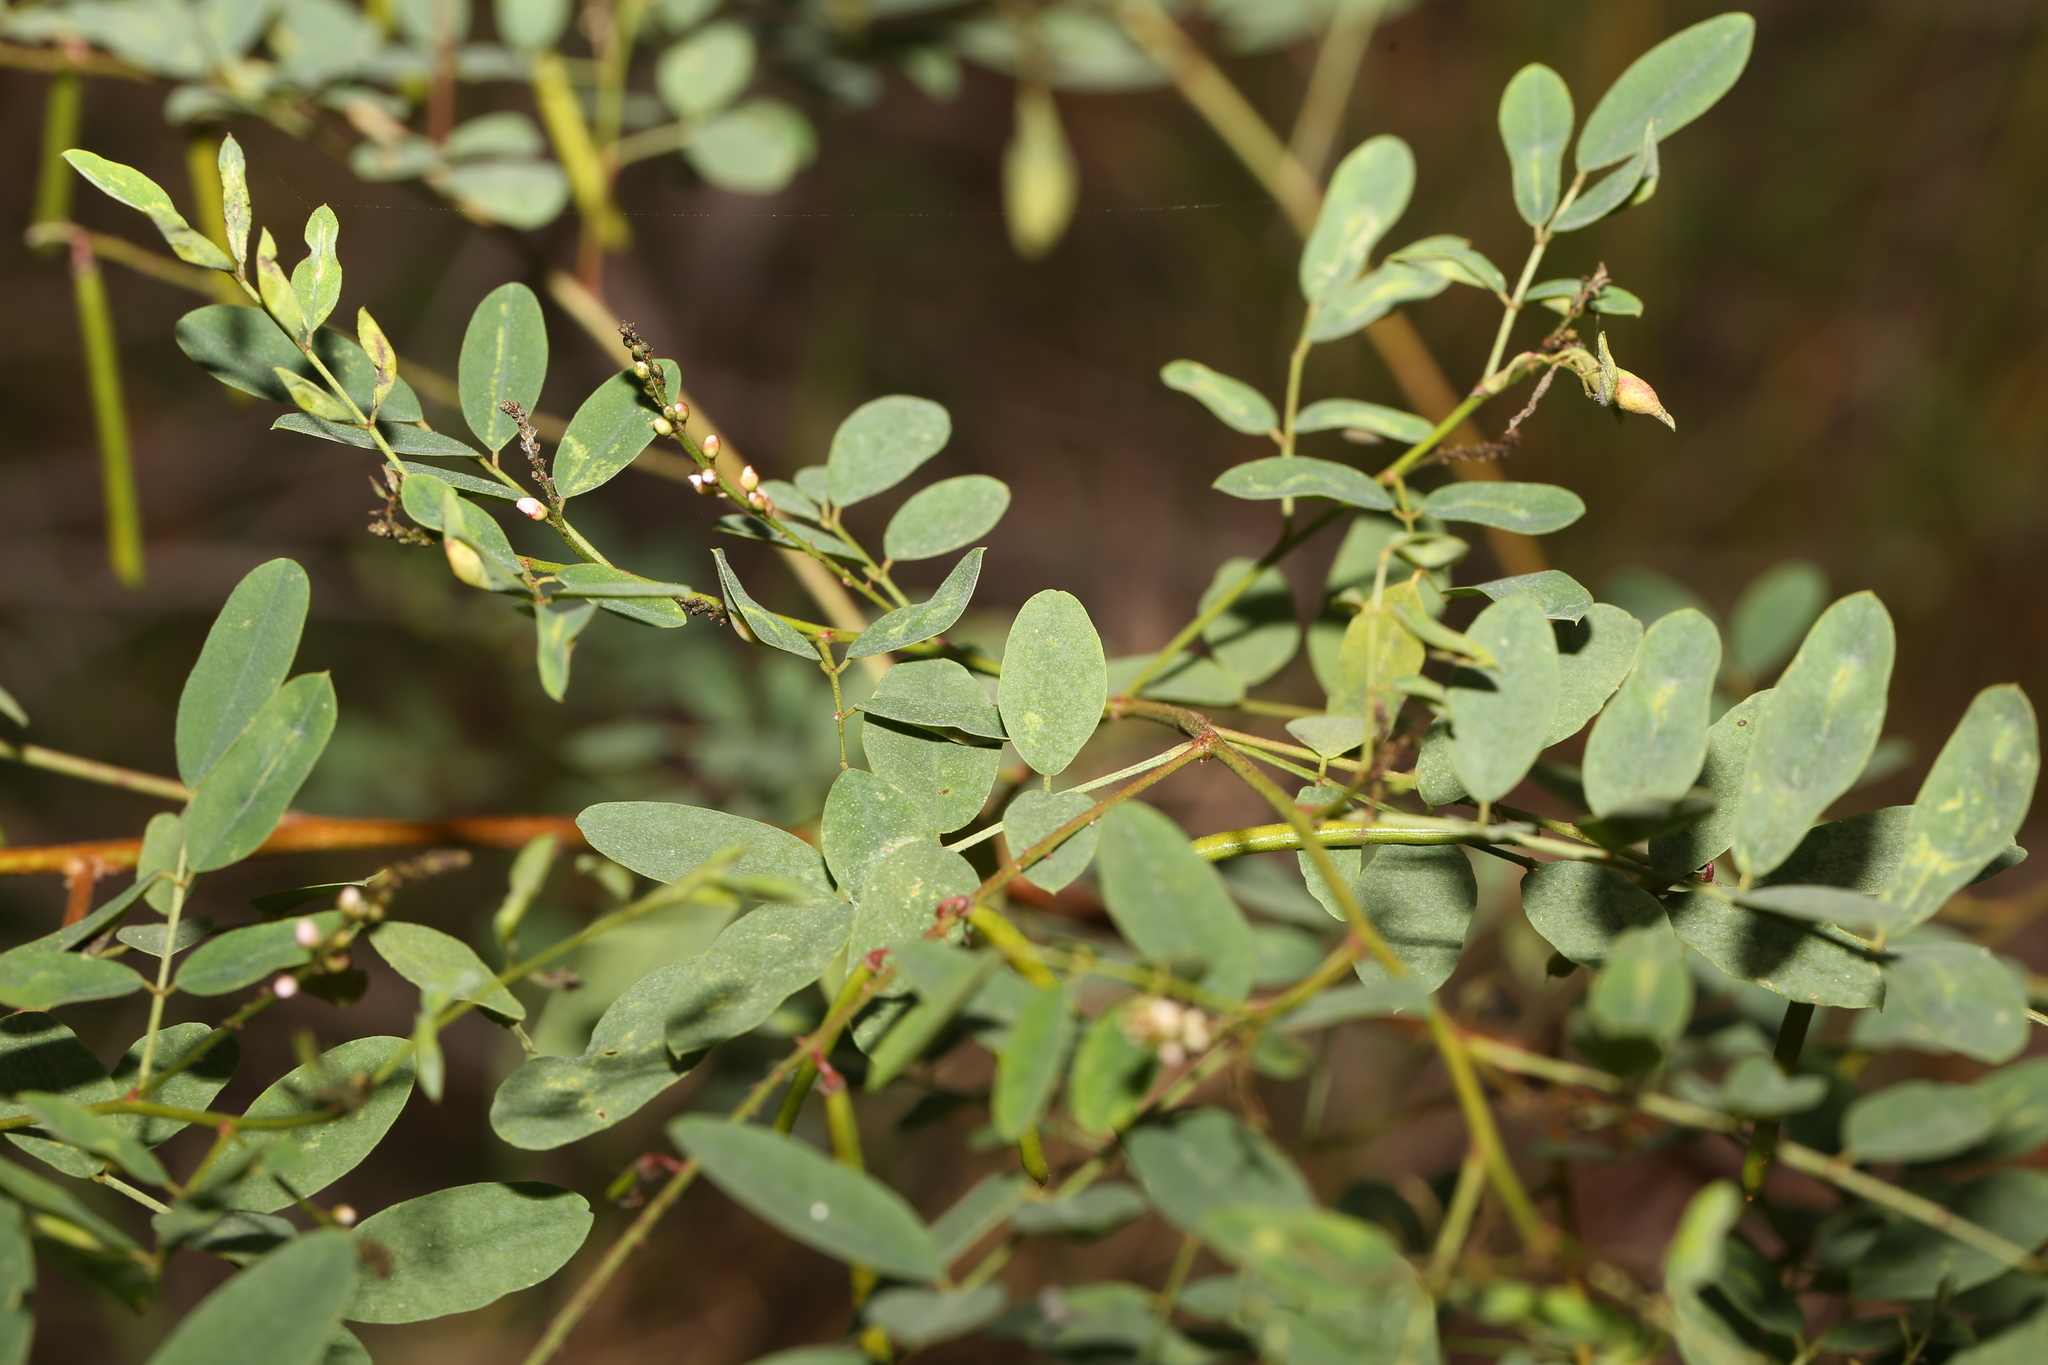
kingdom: Plantae
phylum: Tracheophyta
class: Magnoliopsida
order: Fabales
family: Fabaceae
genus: Indigofera
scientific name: Indigofera australis
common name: Australian indigo
